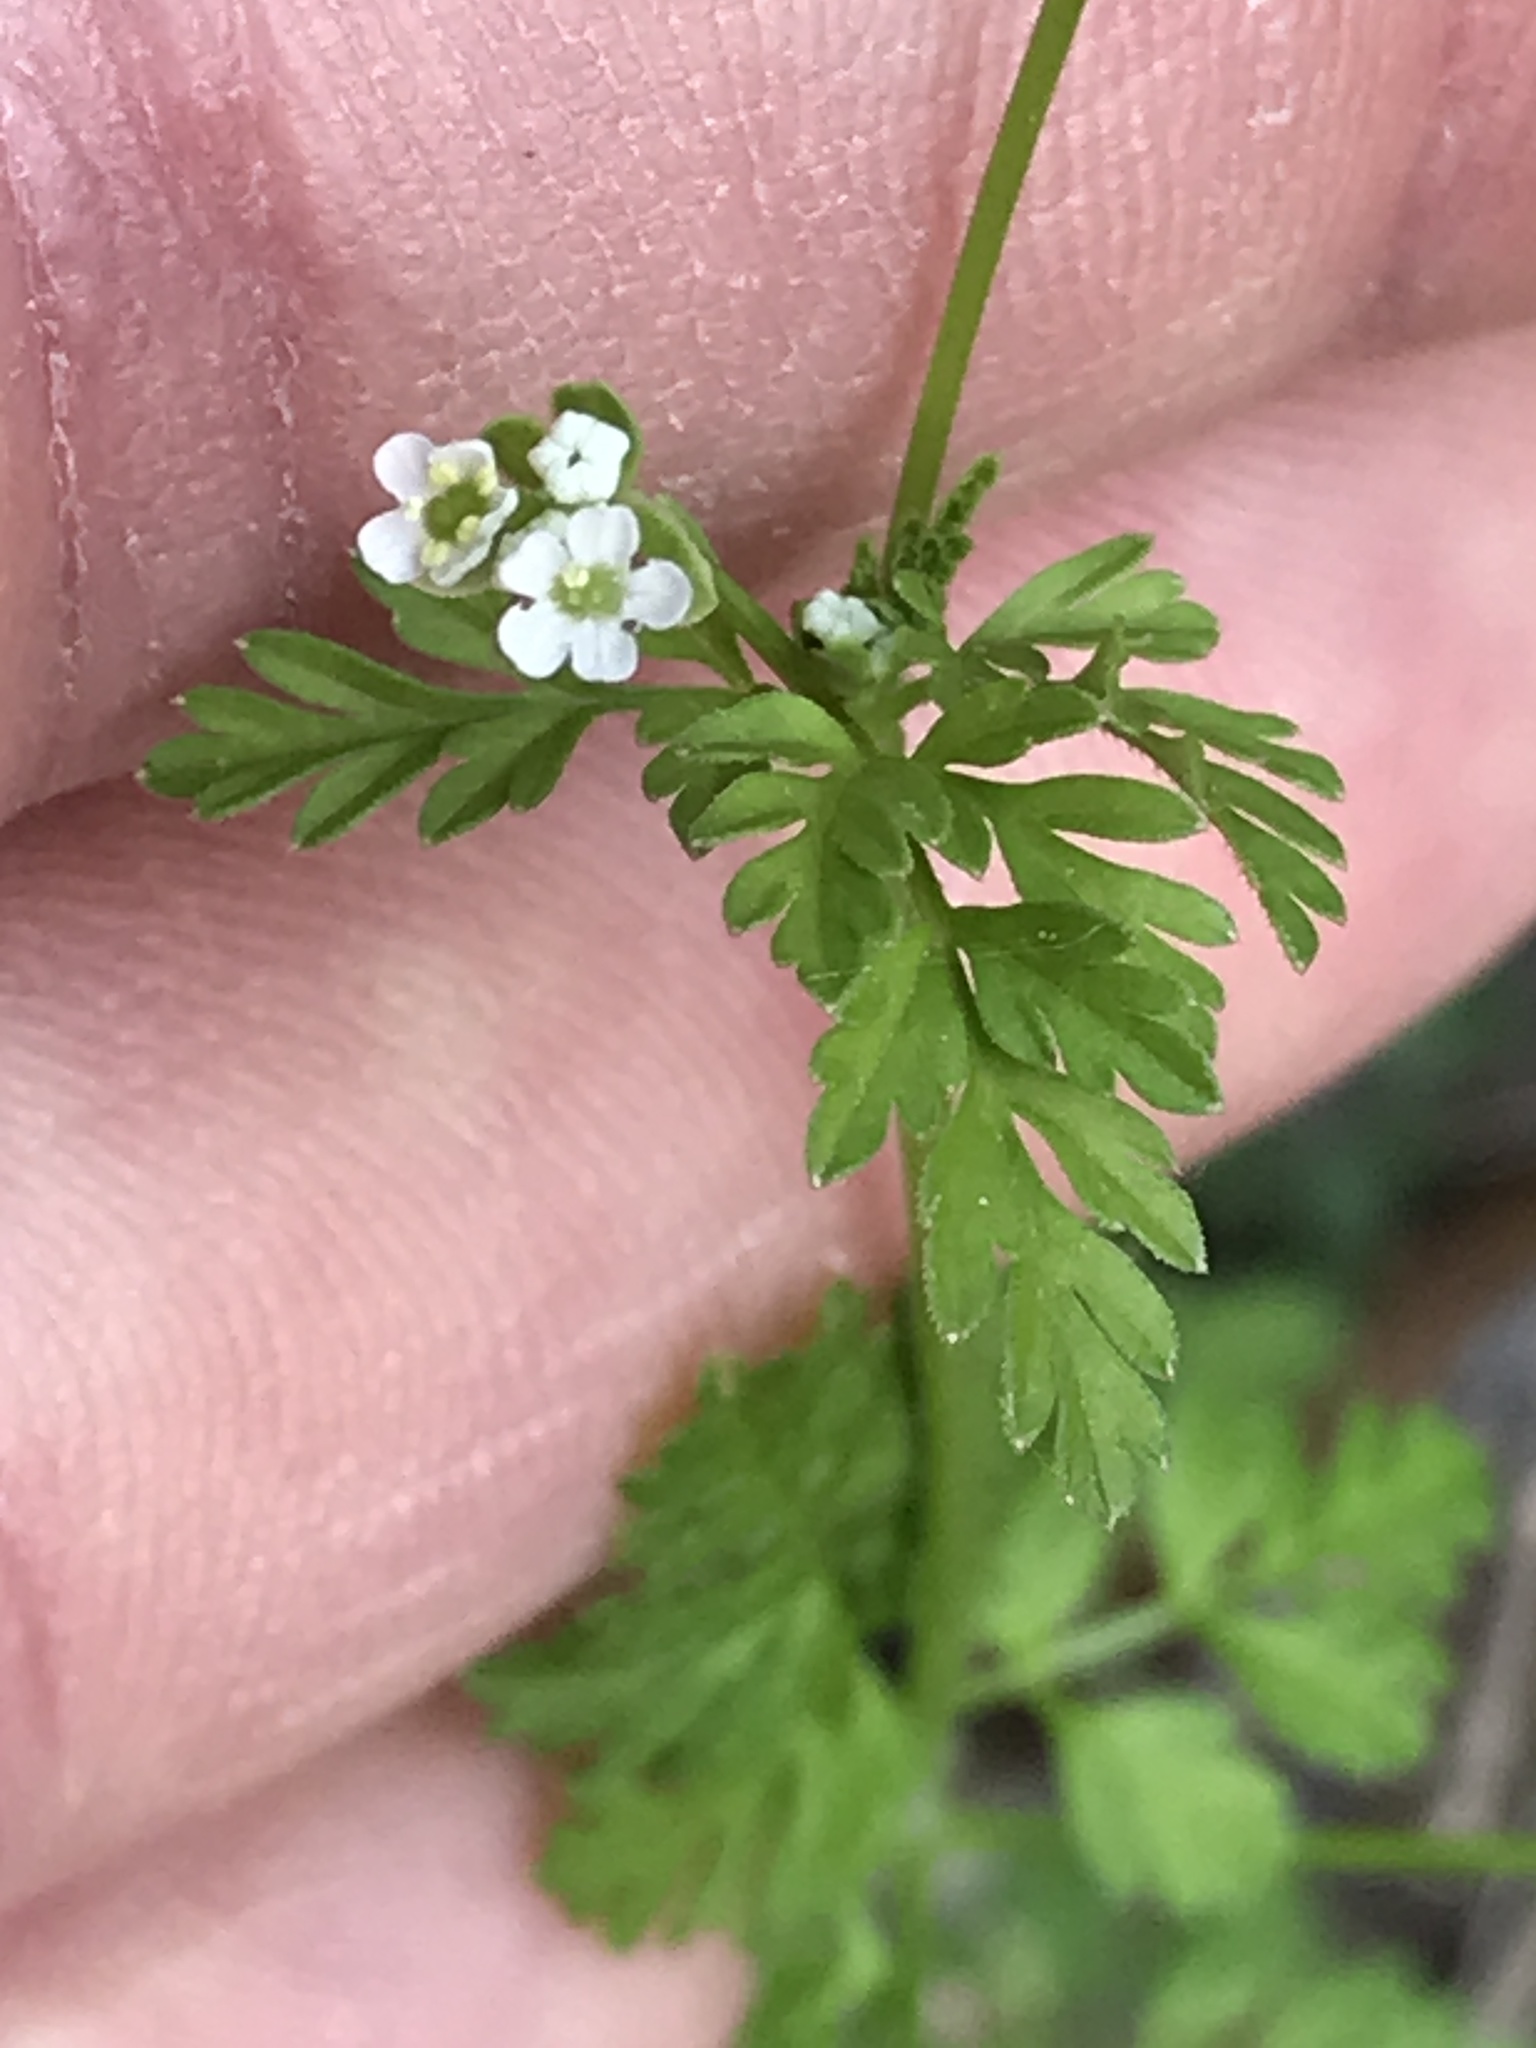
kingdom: Plantae
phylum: Tracheophyta
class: Magnoliopsida
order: Apiales
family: Apiaceae
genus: Chaerophyllum
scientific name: Chaerophyllum tainturieri
